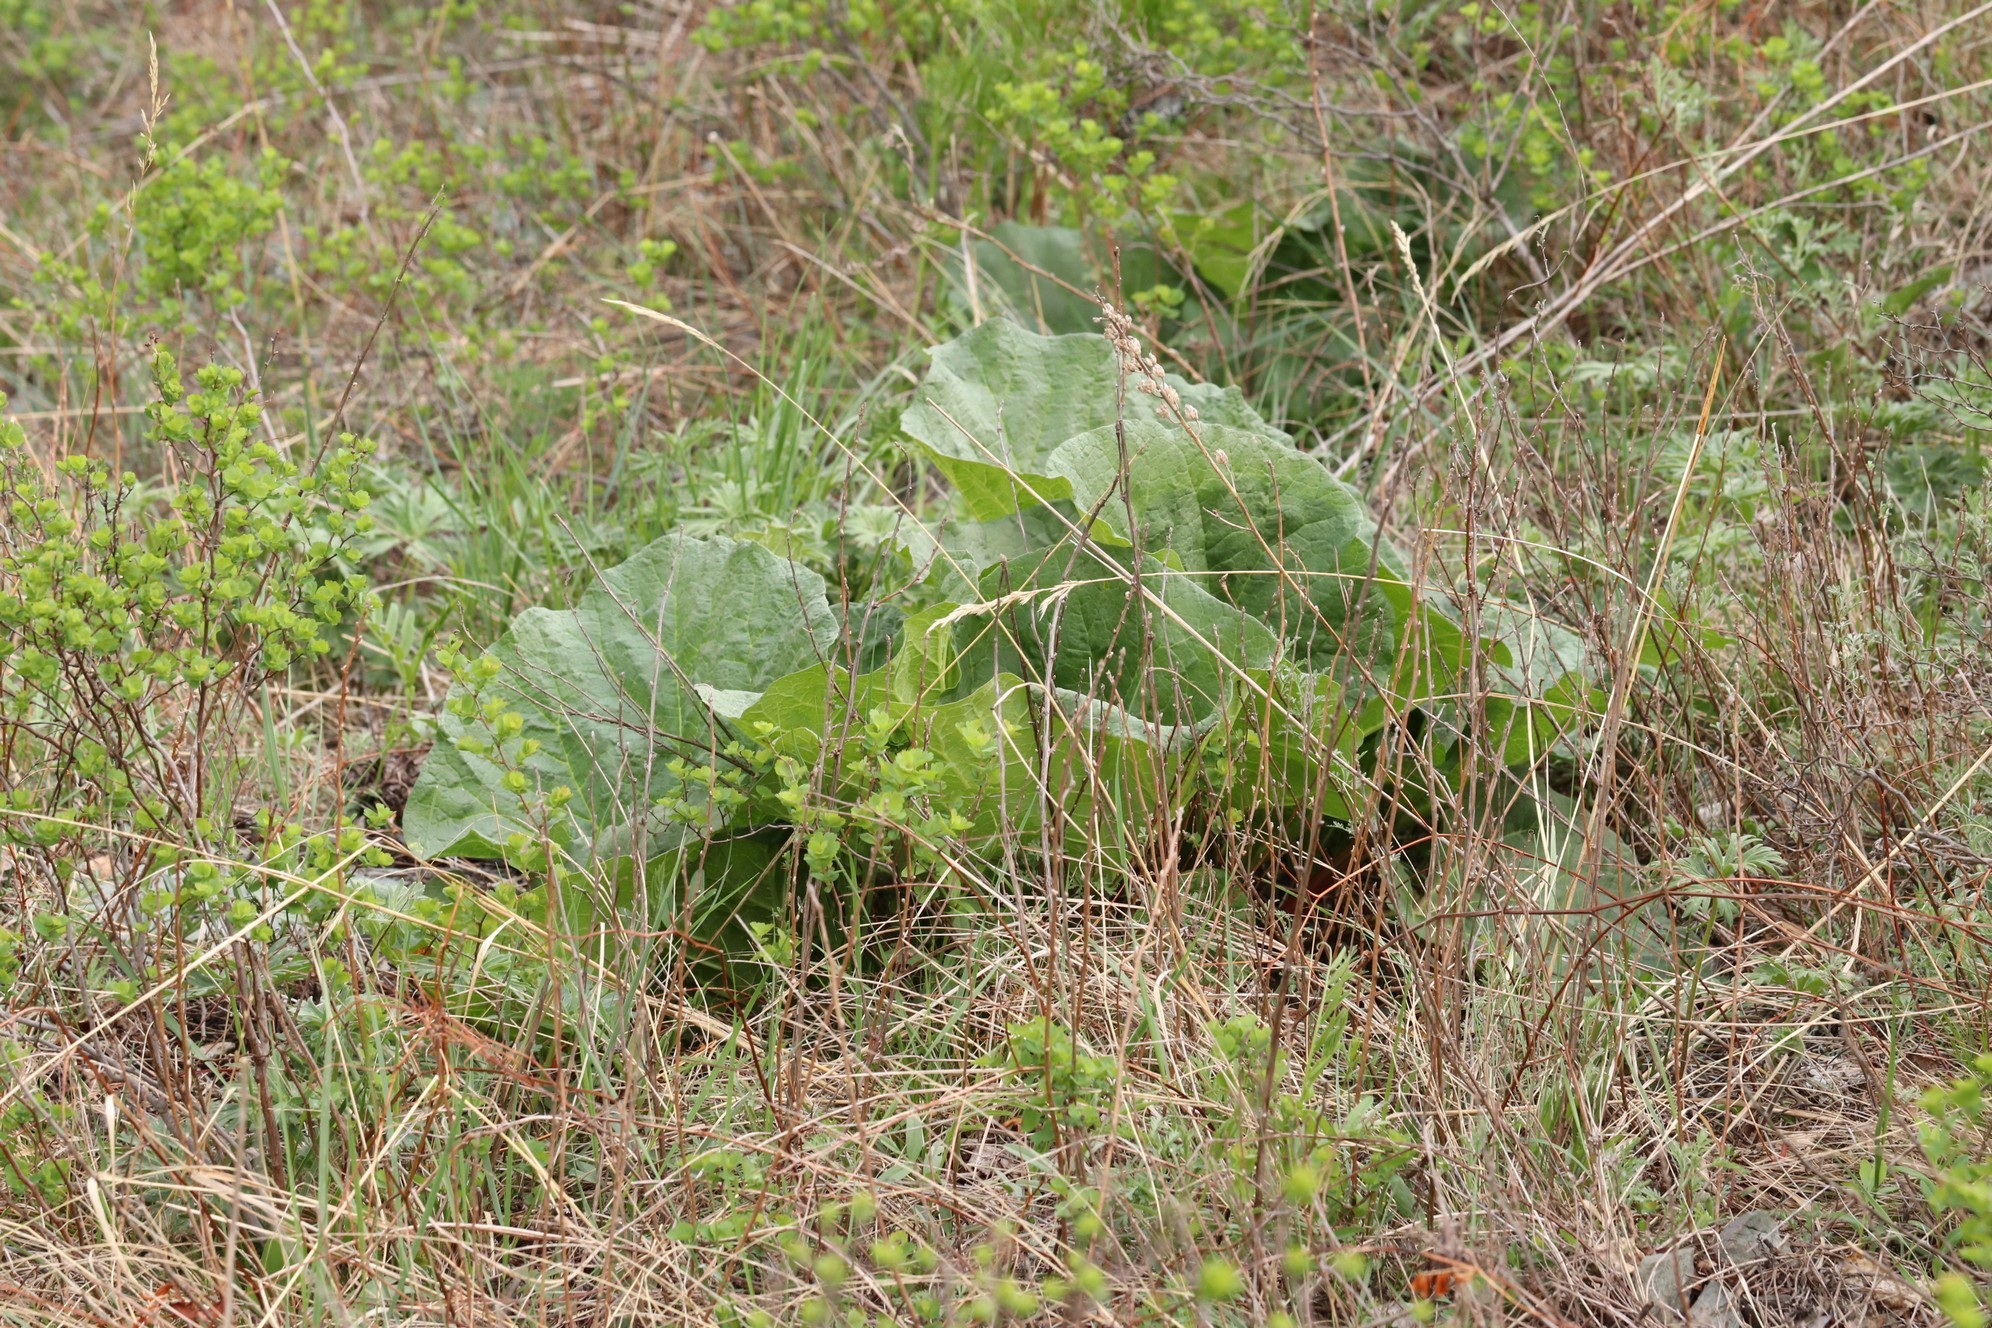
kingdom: Plantae
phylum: Tracheophyta
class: Magnoliopsida
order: Caryophyllales
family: Polygonaceae
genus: Rheum
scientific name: Rheum compactum
